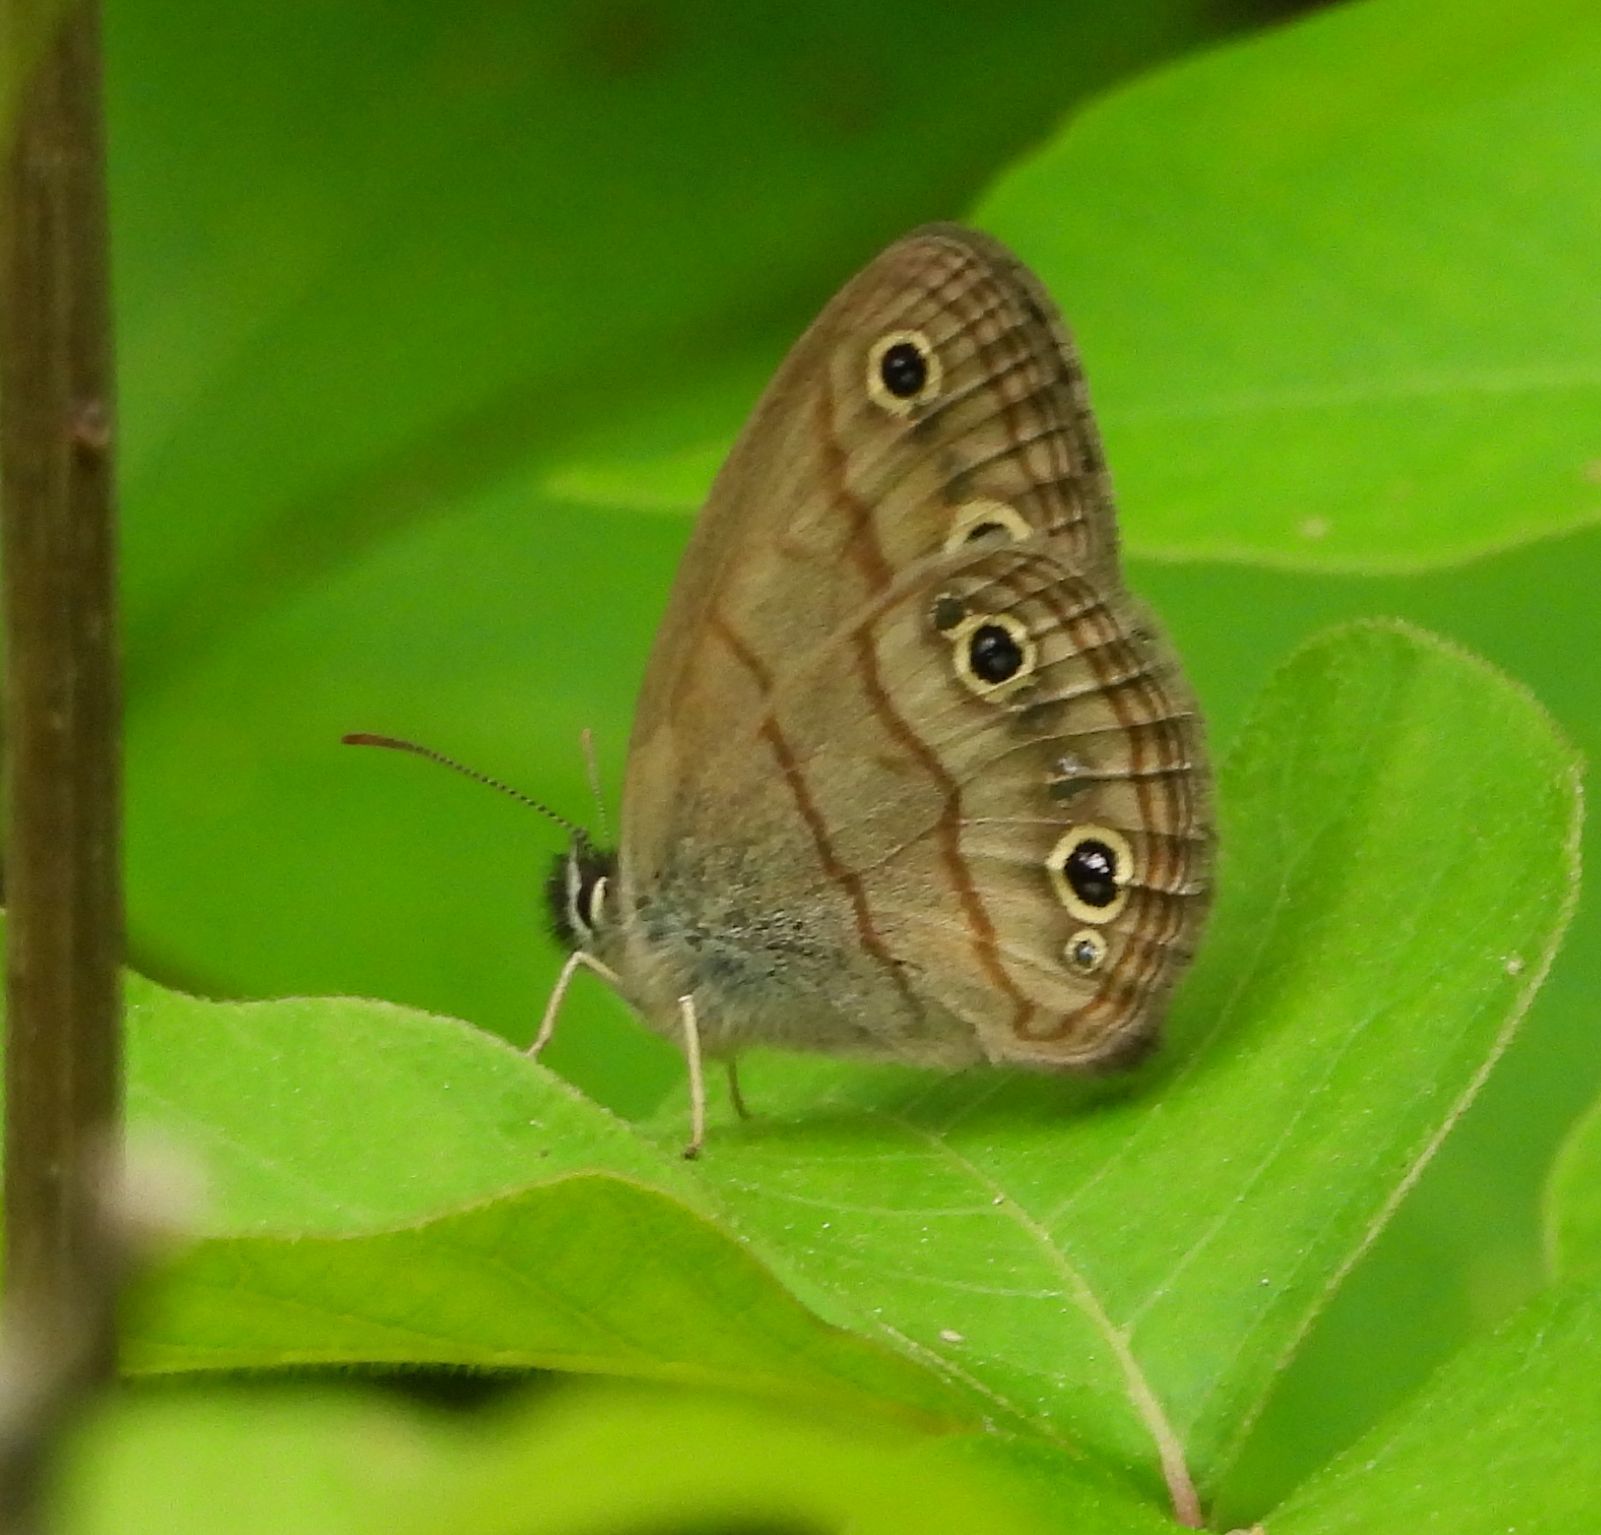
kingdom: Animalia
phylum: Arthropoda
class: Insecta
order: Lepidoptera
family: Nymphalidae
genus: Euptychia
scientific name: Euptychia cymela
